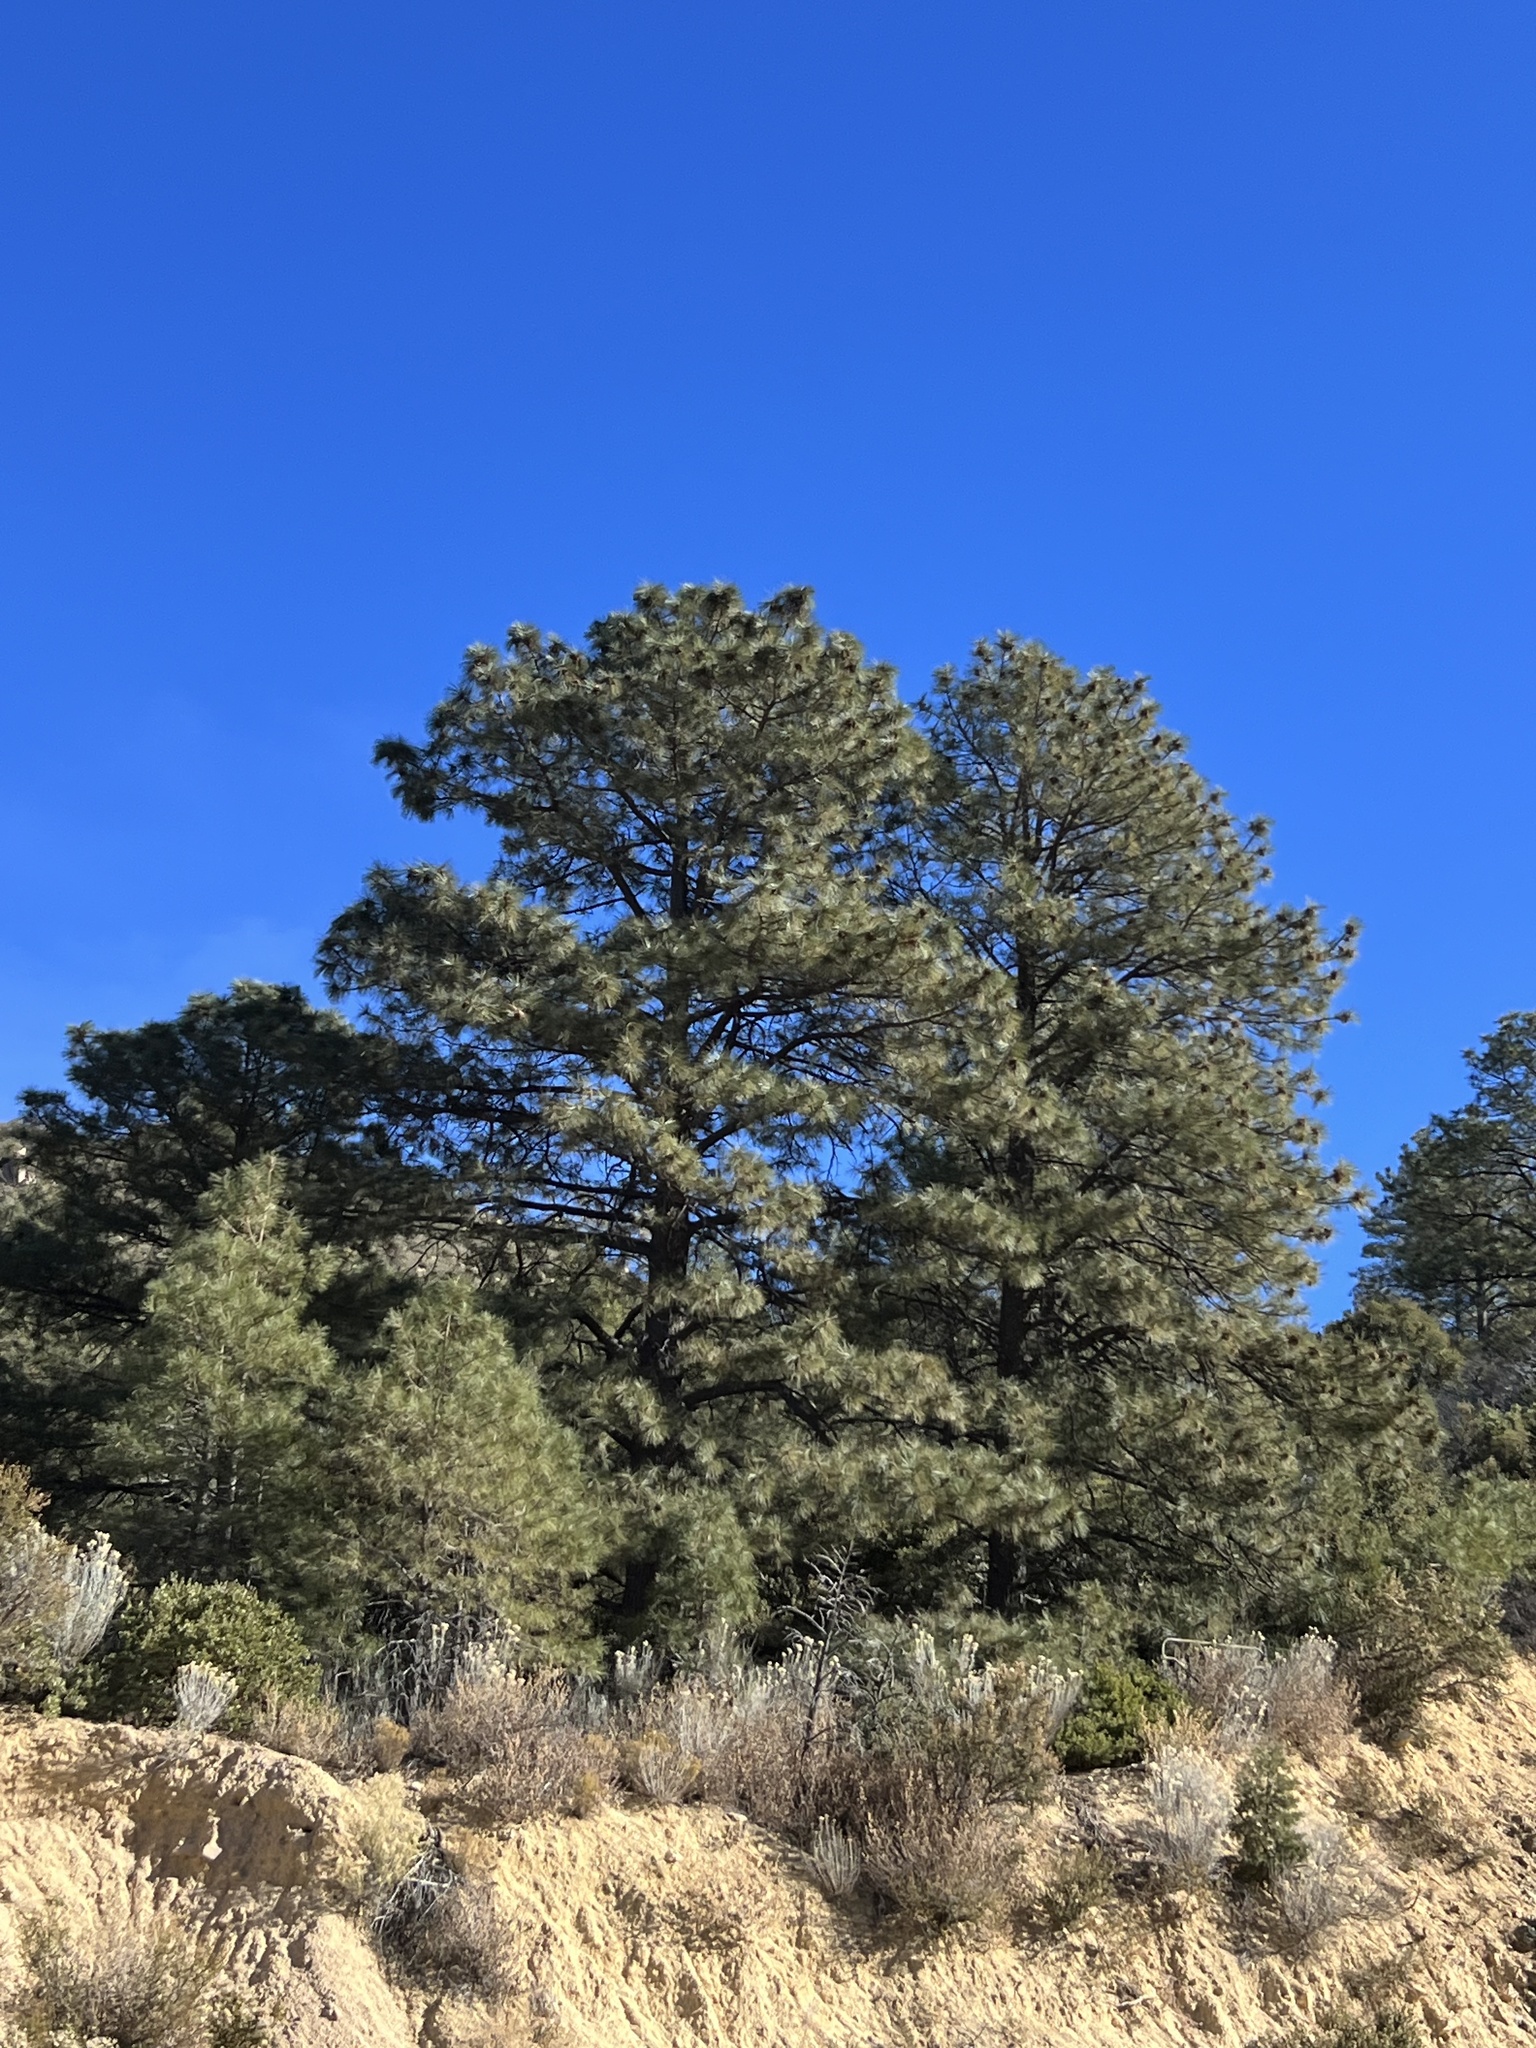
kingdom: Plantae
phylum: Tracheophyta
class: Pinopsida
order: Pinales
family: Pinaceae
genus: Pinus
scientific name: Pinus ponderosa
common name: Western yellow-pine
